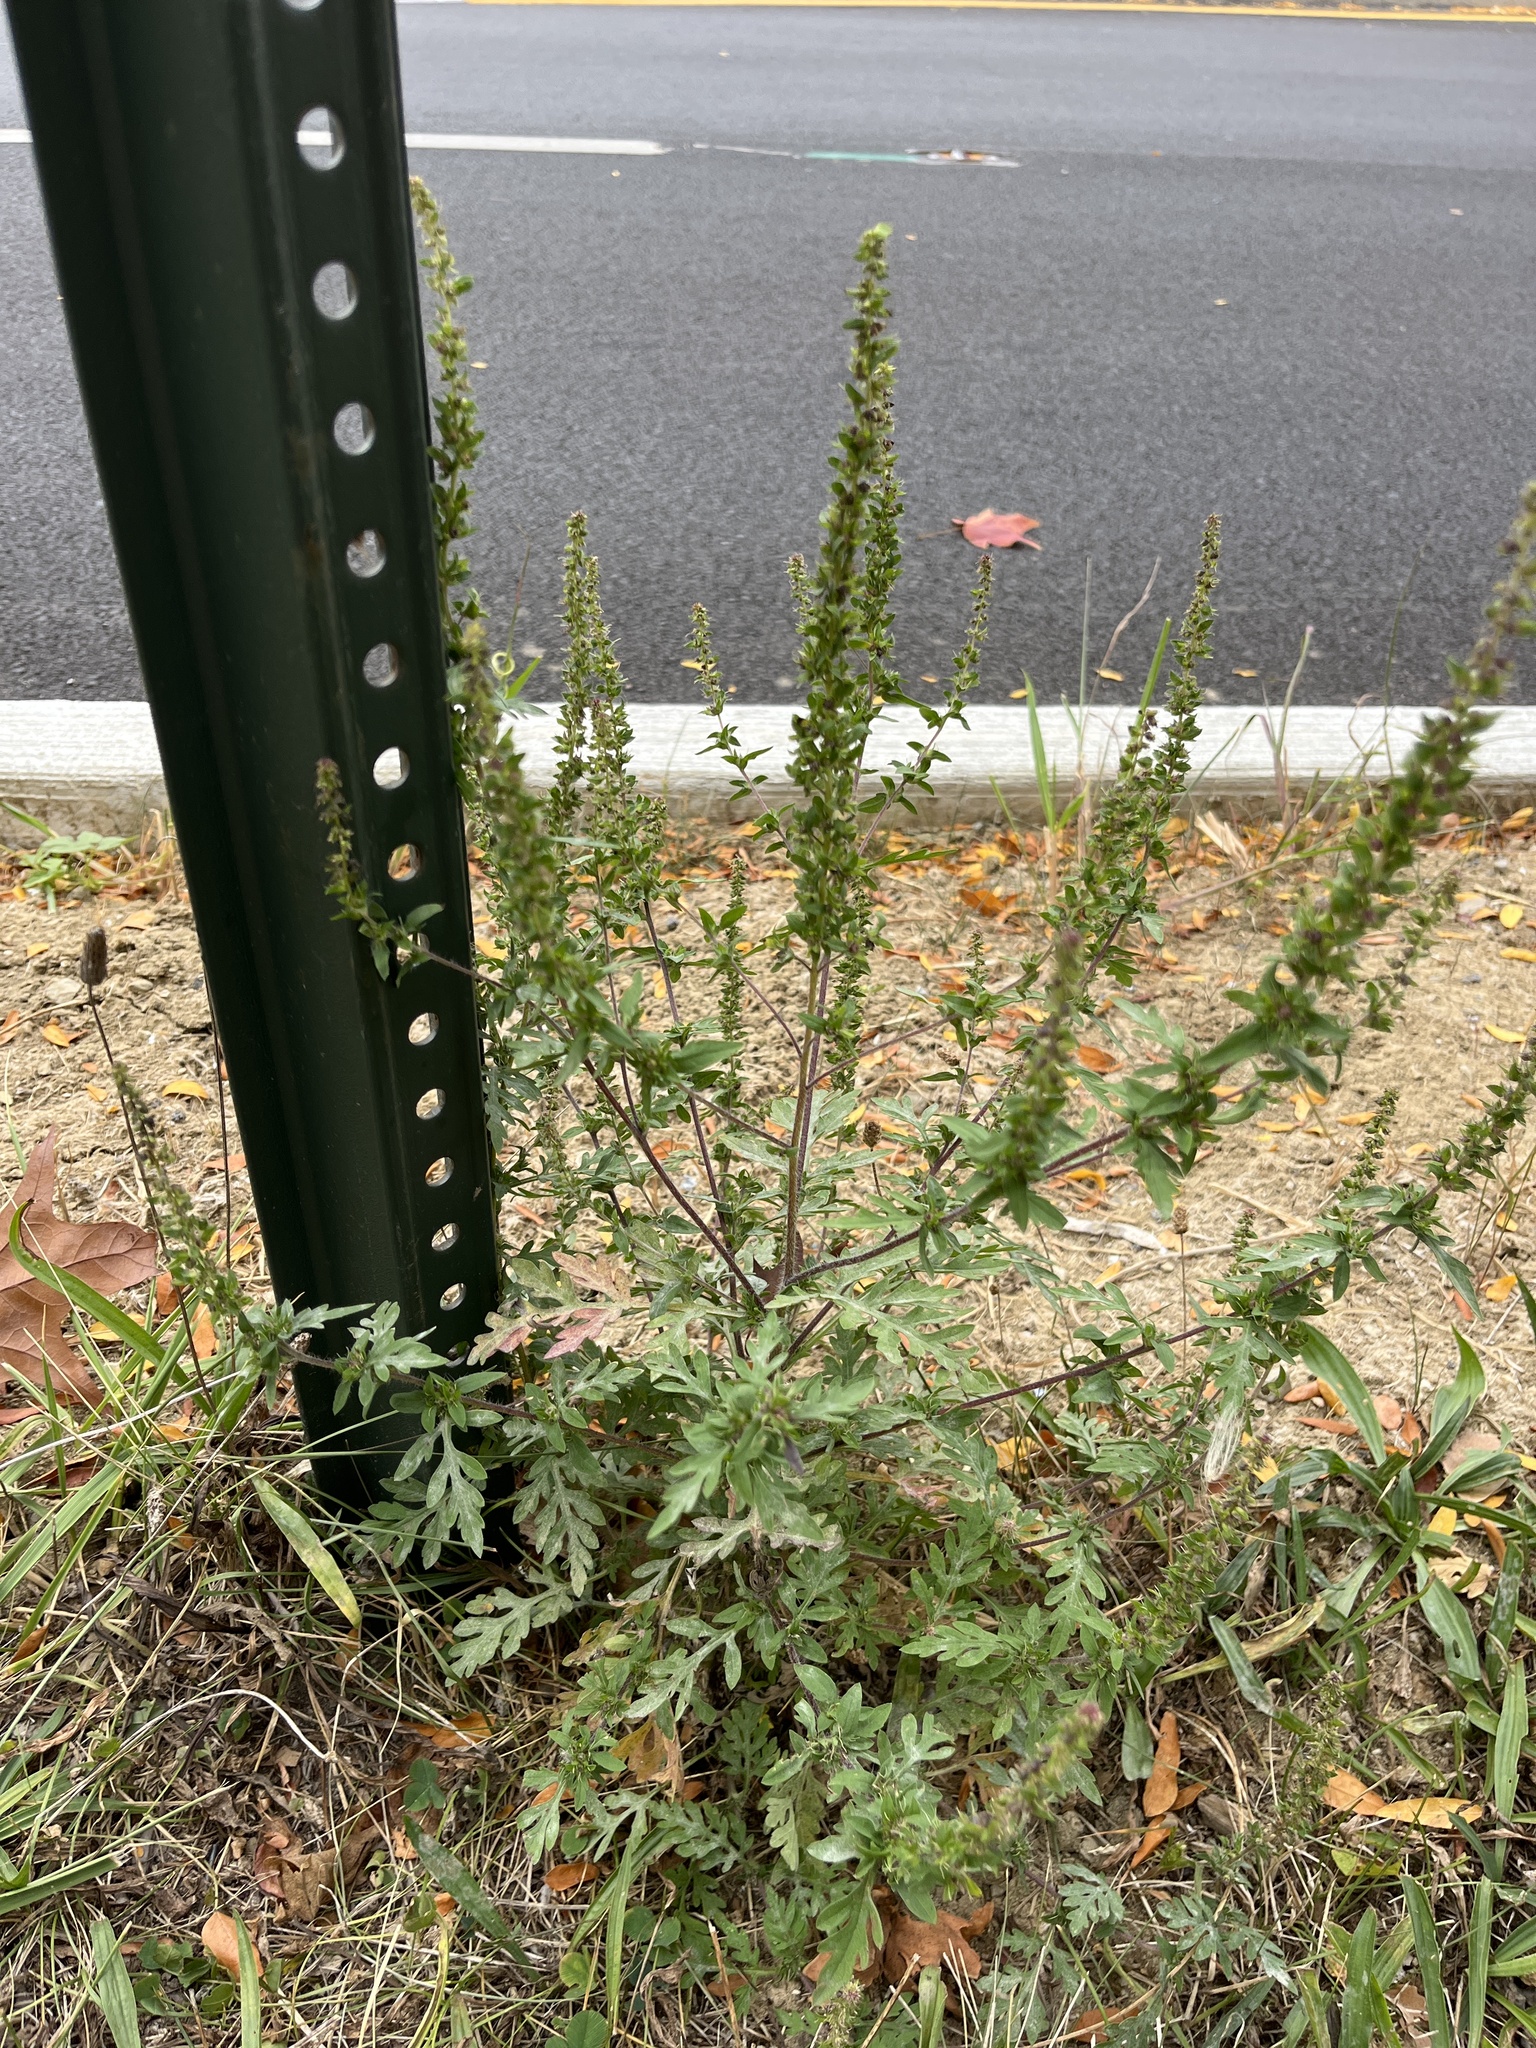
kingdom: Plantae
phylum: Tracheophyta
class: Magnoliopsida
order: Asterales
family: Asteraceae
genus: Ambrosia
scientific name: Ambrosia artemisiifolia
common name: Annual ragweed
